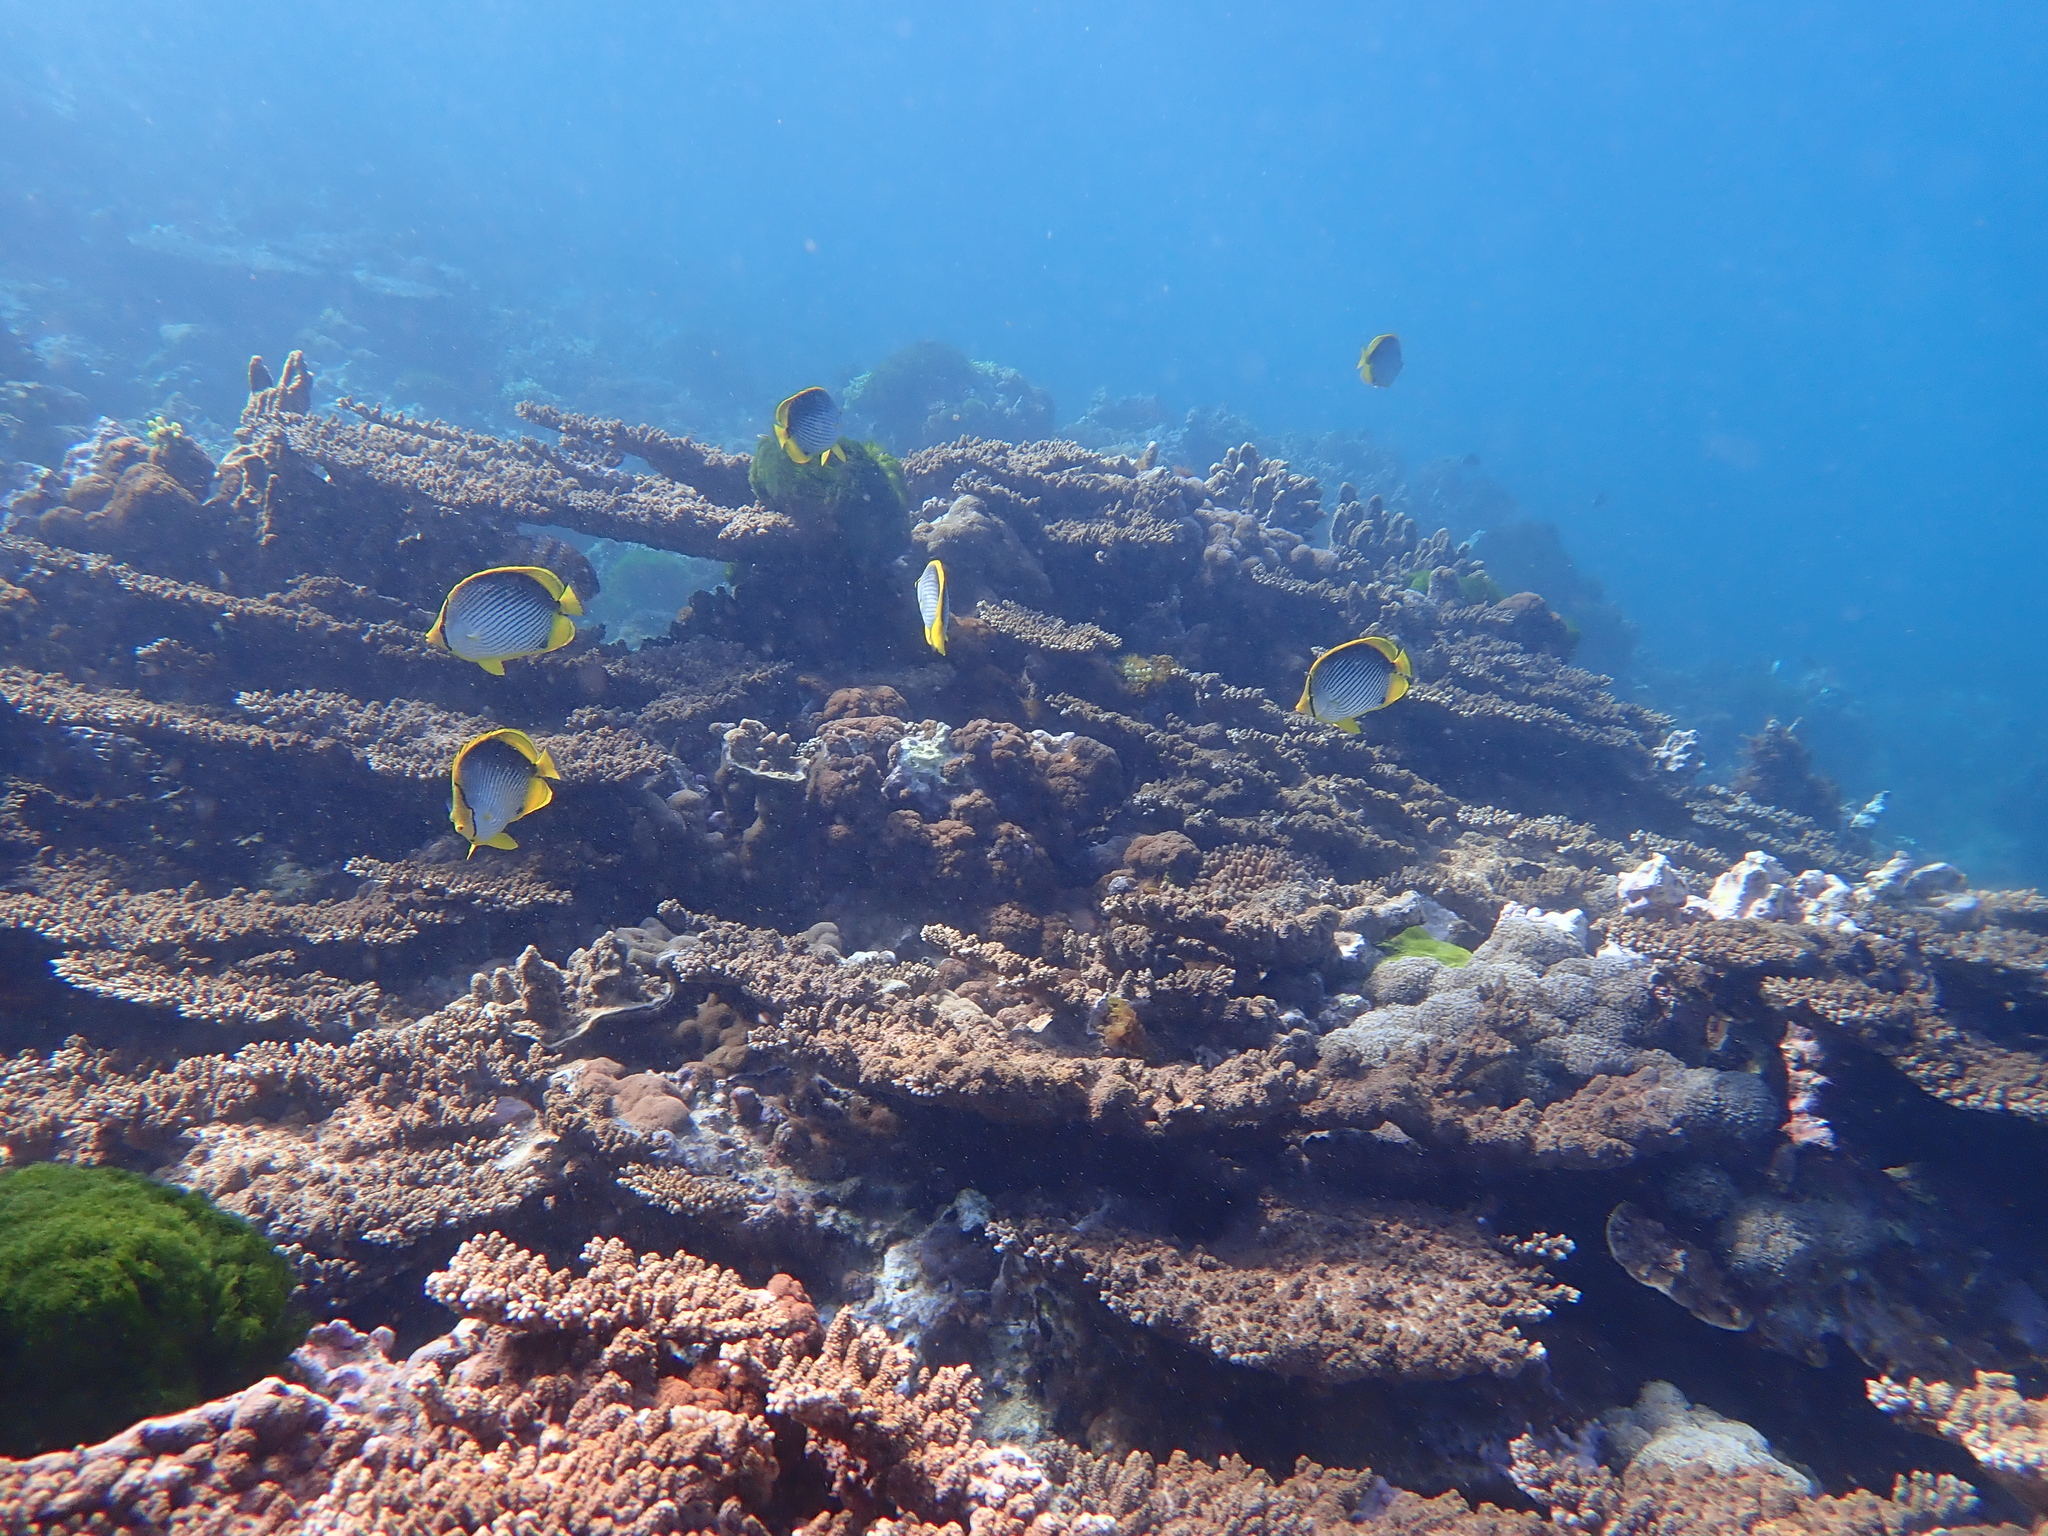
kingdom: Animalia
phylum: Chordata
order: Perciformes
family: Chaetodontidae
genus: Chaetodon
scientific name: Chaetodon melannotus
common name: Blackback butterflyfish
